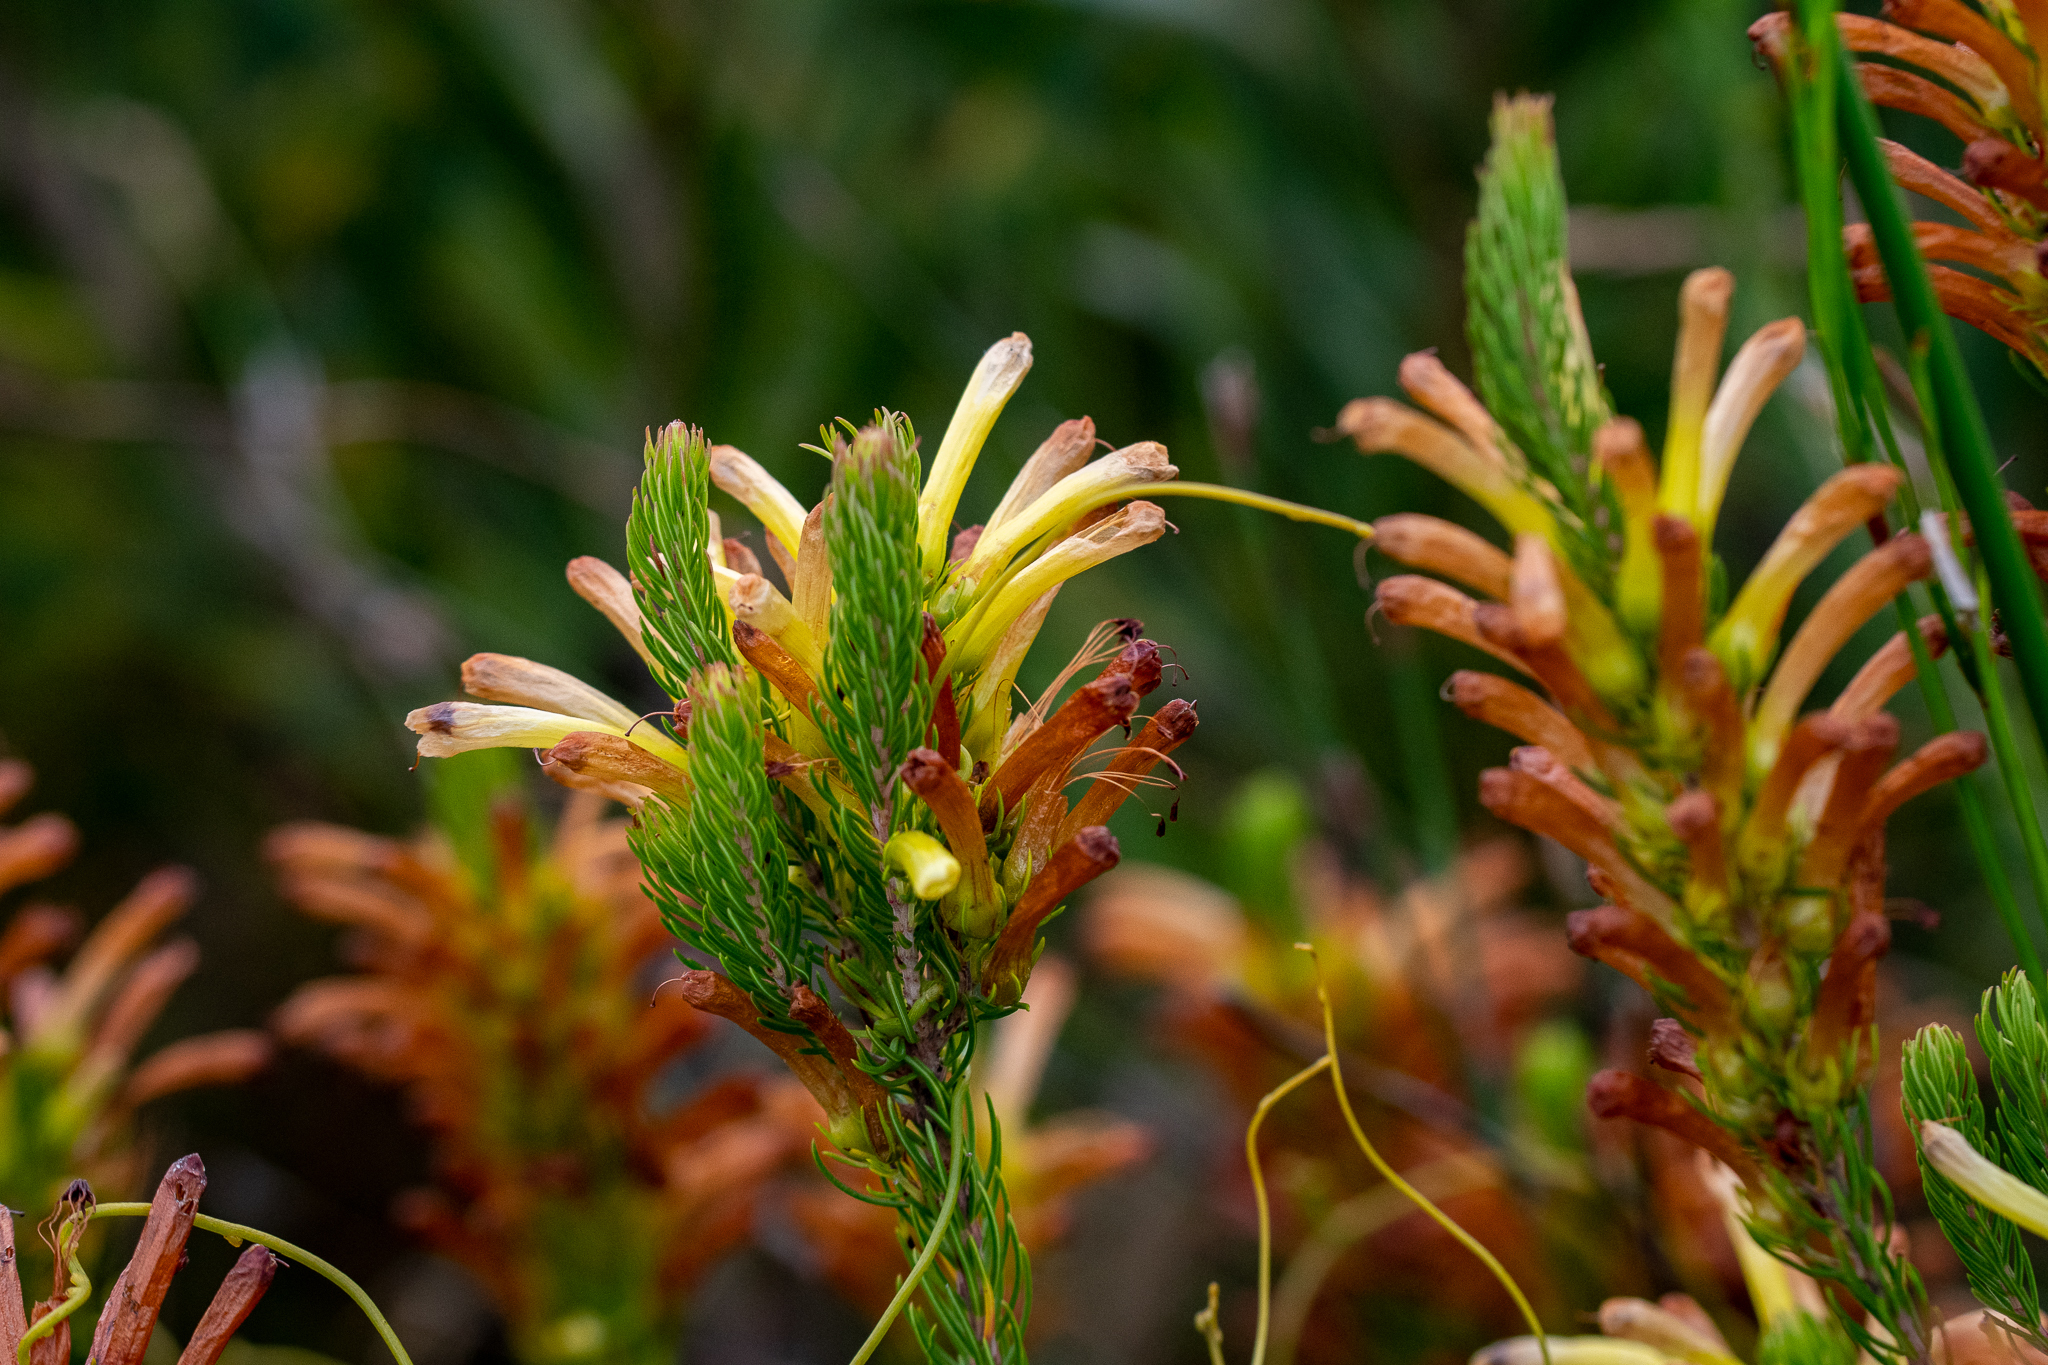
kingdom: Plantae
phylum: Tracheophyta
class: Magnoliopsida
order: Ericales
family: Ericaceae
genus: Erica
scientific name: Erica pinea
